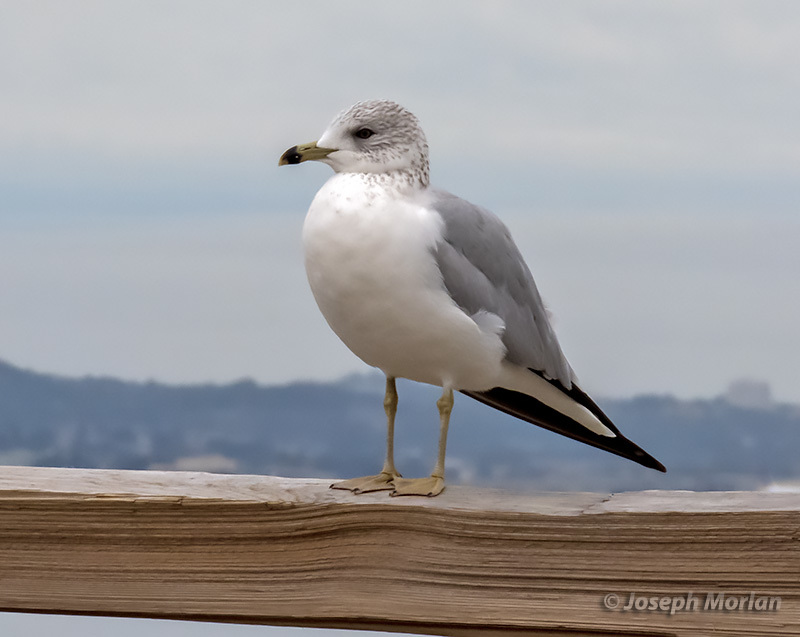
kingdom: Animalia
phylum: Chordata
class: Aves
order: Charadriiformes
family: Laridae
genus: Larus
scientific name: Larus delawarensis
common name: Ring-billed gull
